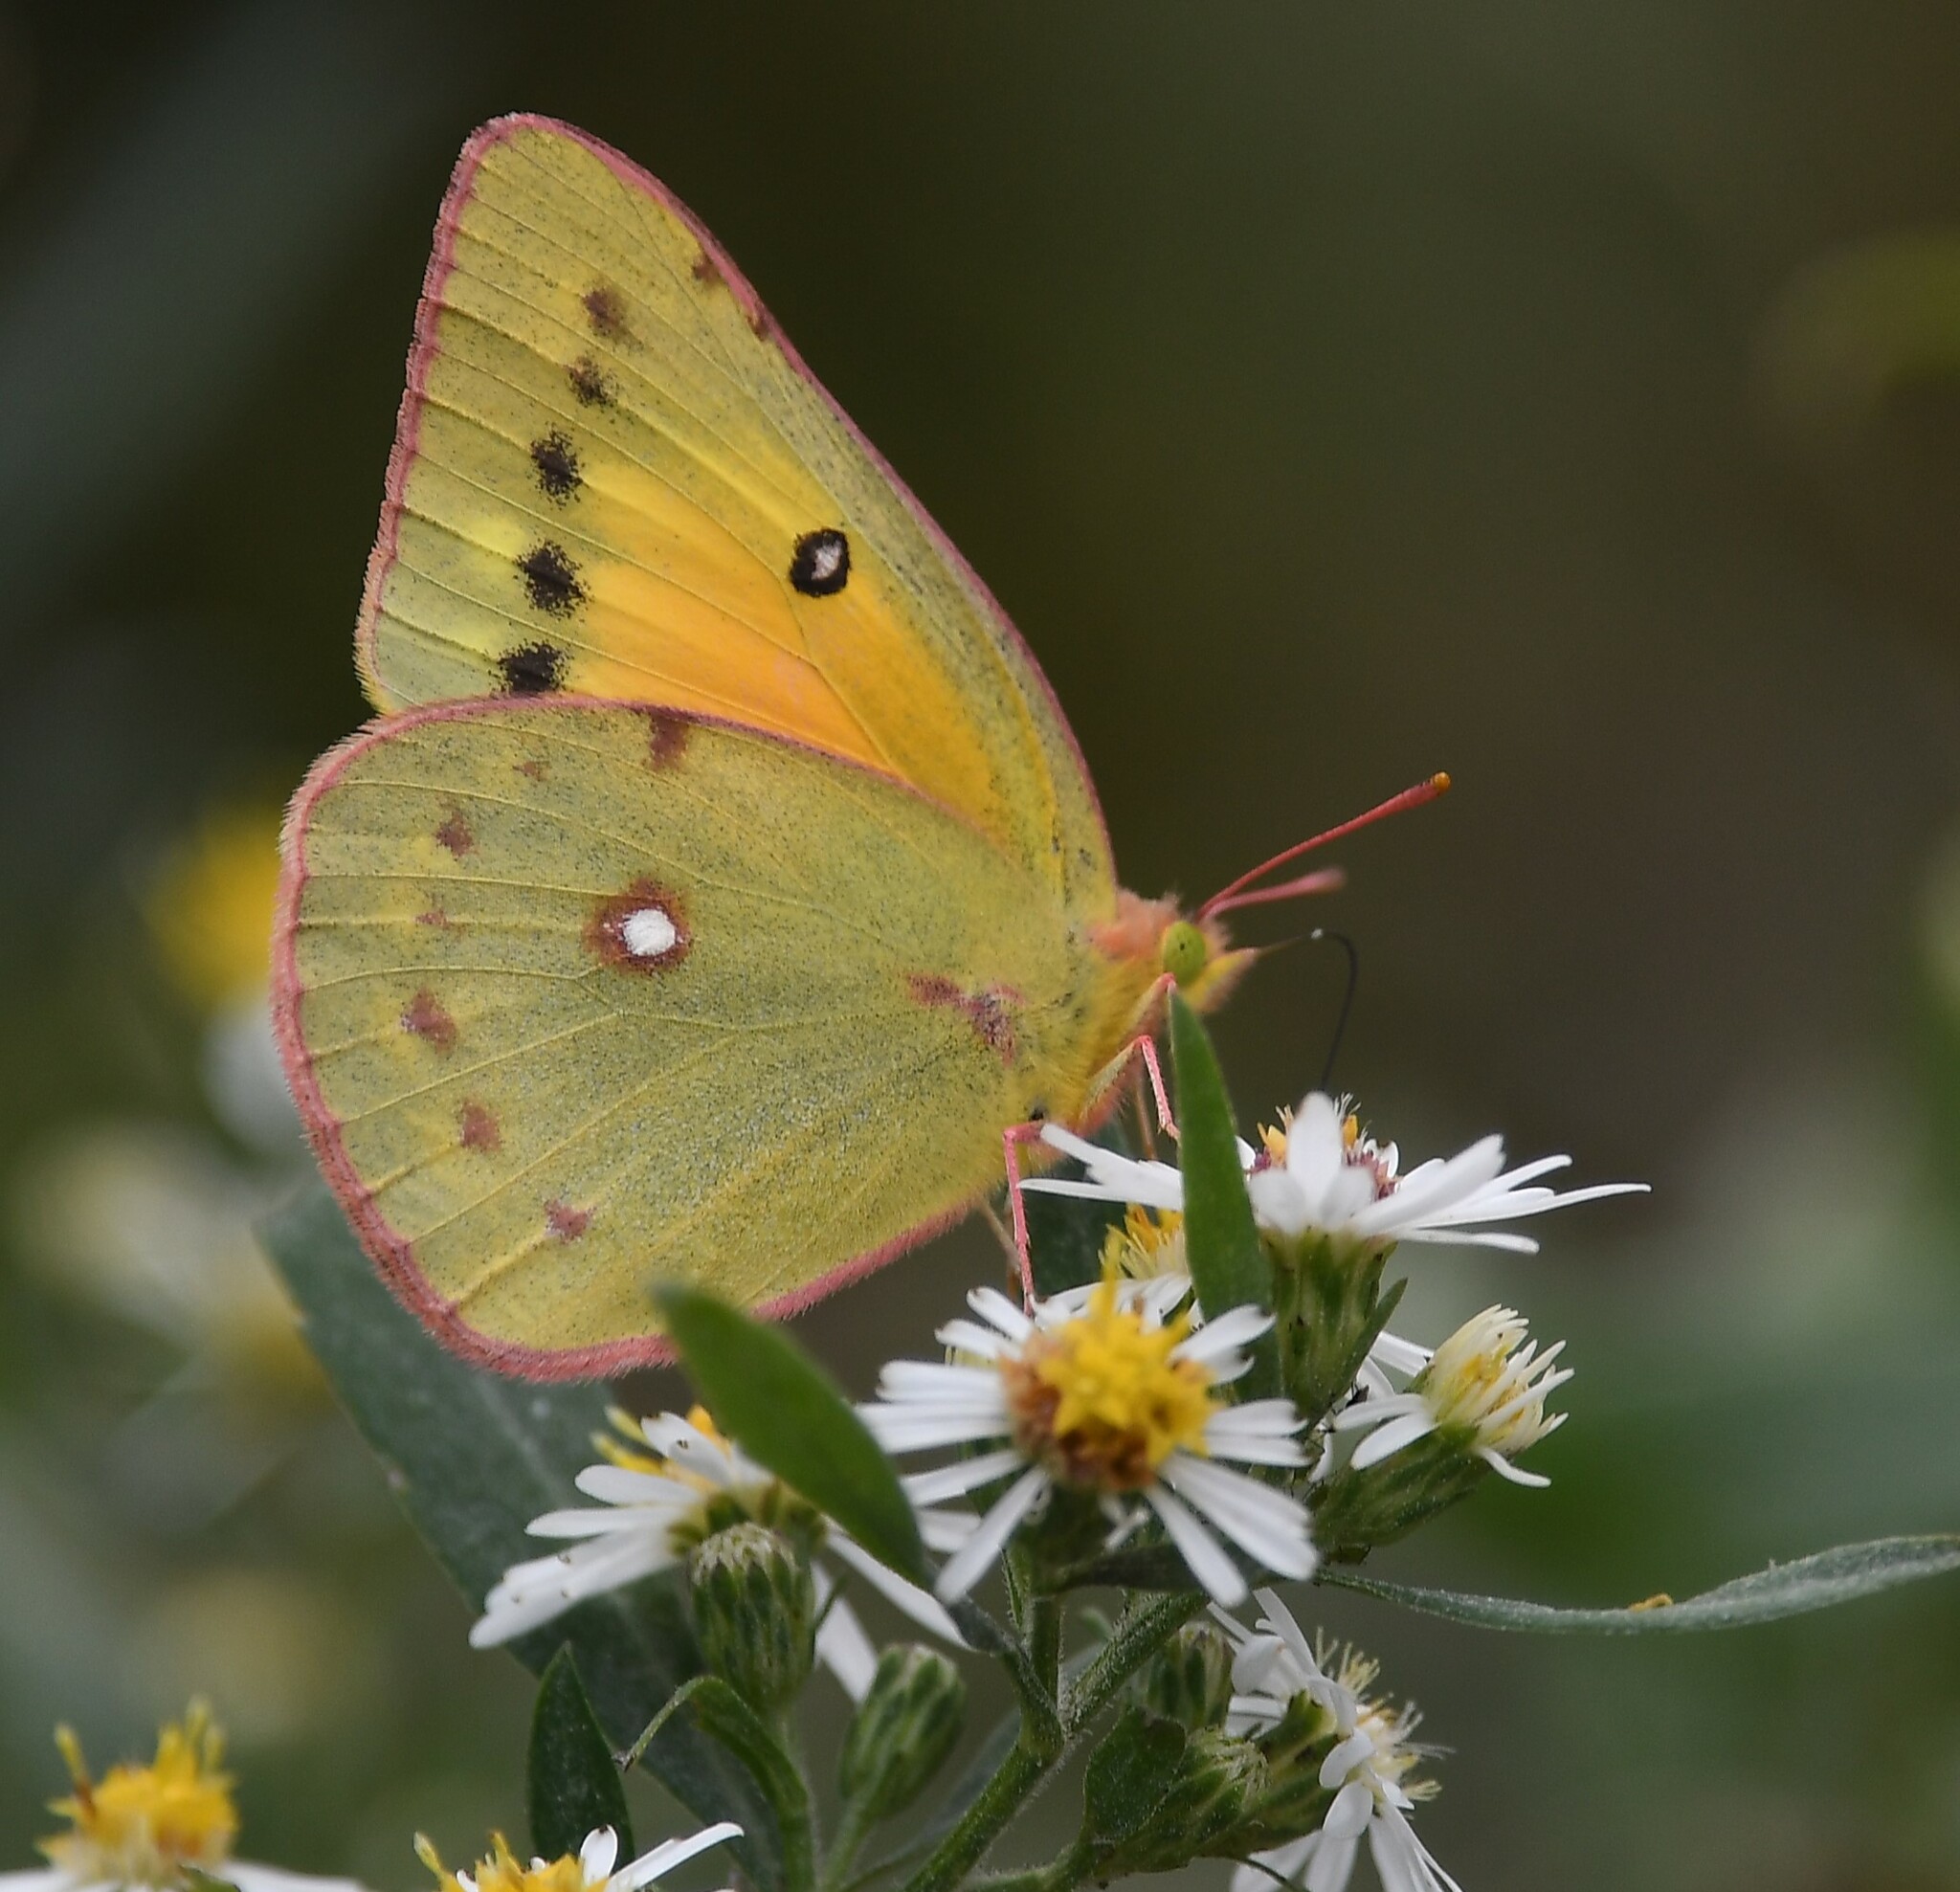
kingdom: Animalia
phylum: Arthropoda
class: Insecta
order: Lepidoptera
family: Pieridae
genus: Colias
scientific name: Colias eurytheme
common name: Alfalfa butterfly
